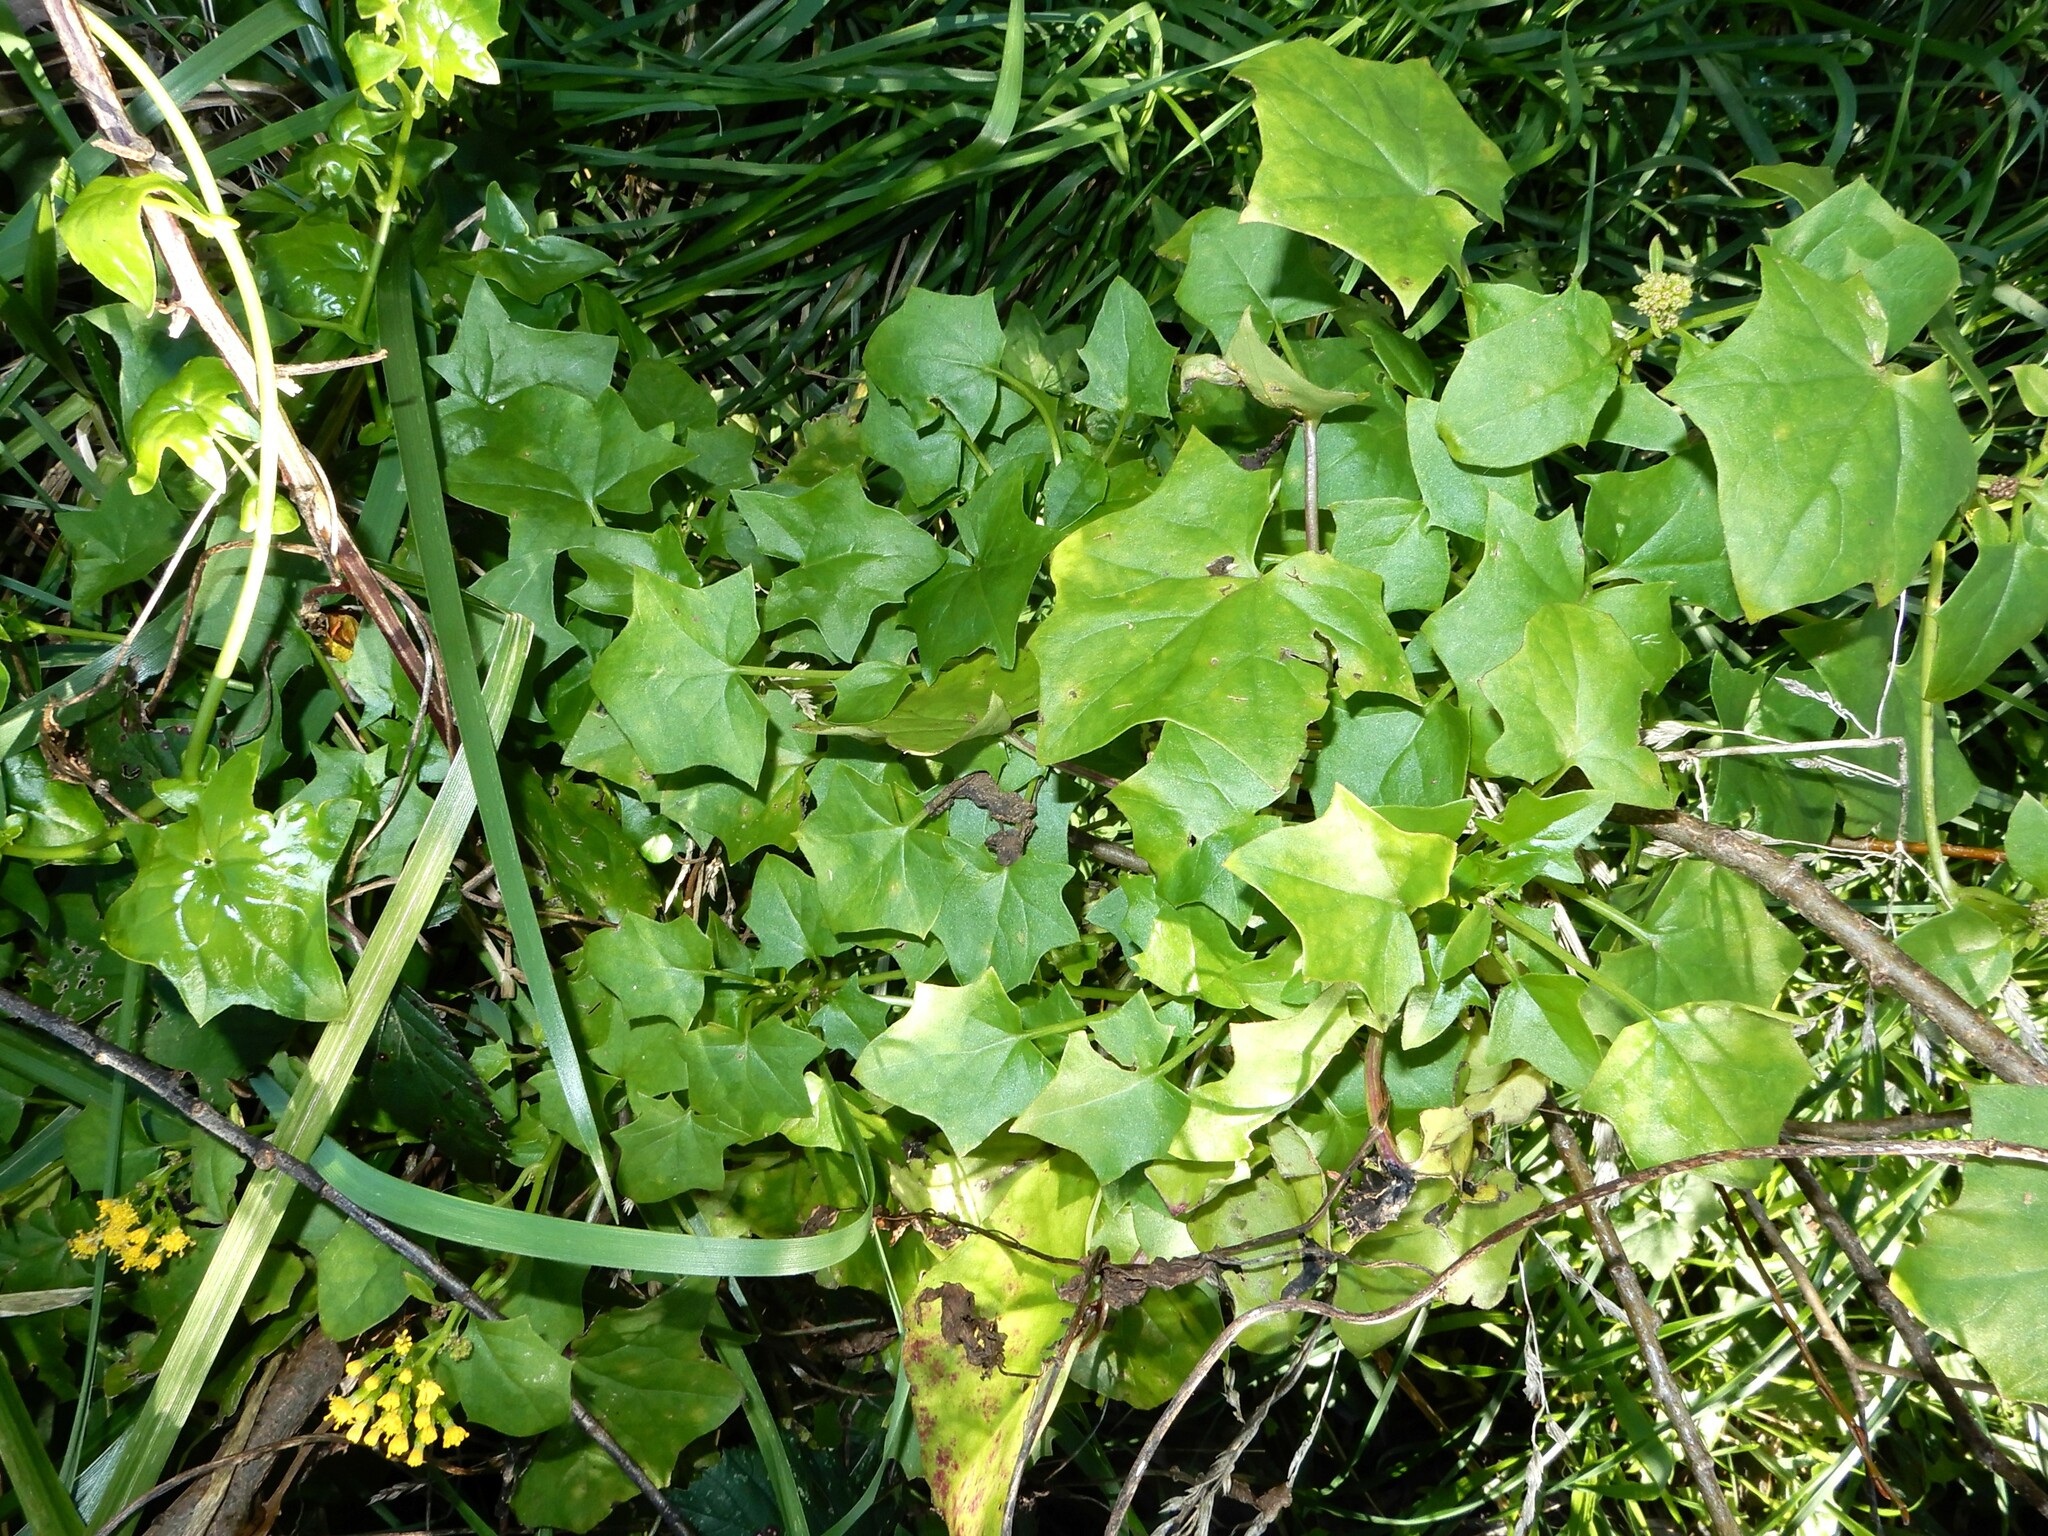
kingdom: Plantae
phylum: Tracheophyta
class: Magnoliopsida
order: Asterales
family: Asteraceae
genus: Delairea
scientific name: Delairea odorata
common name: Cape-ivy
